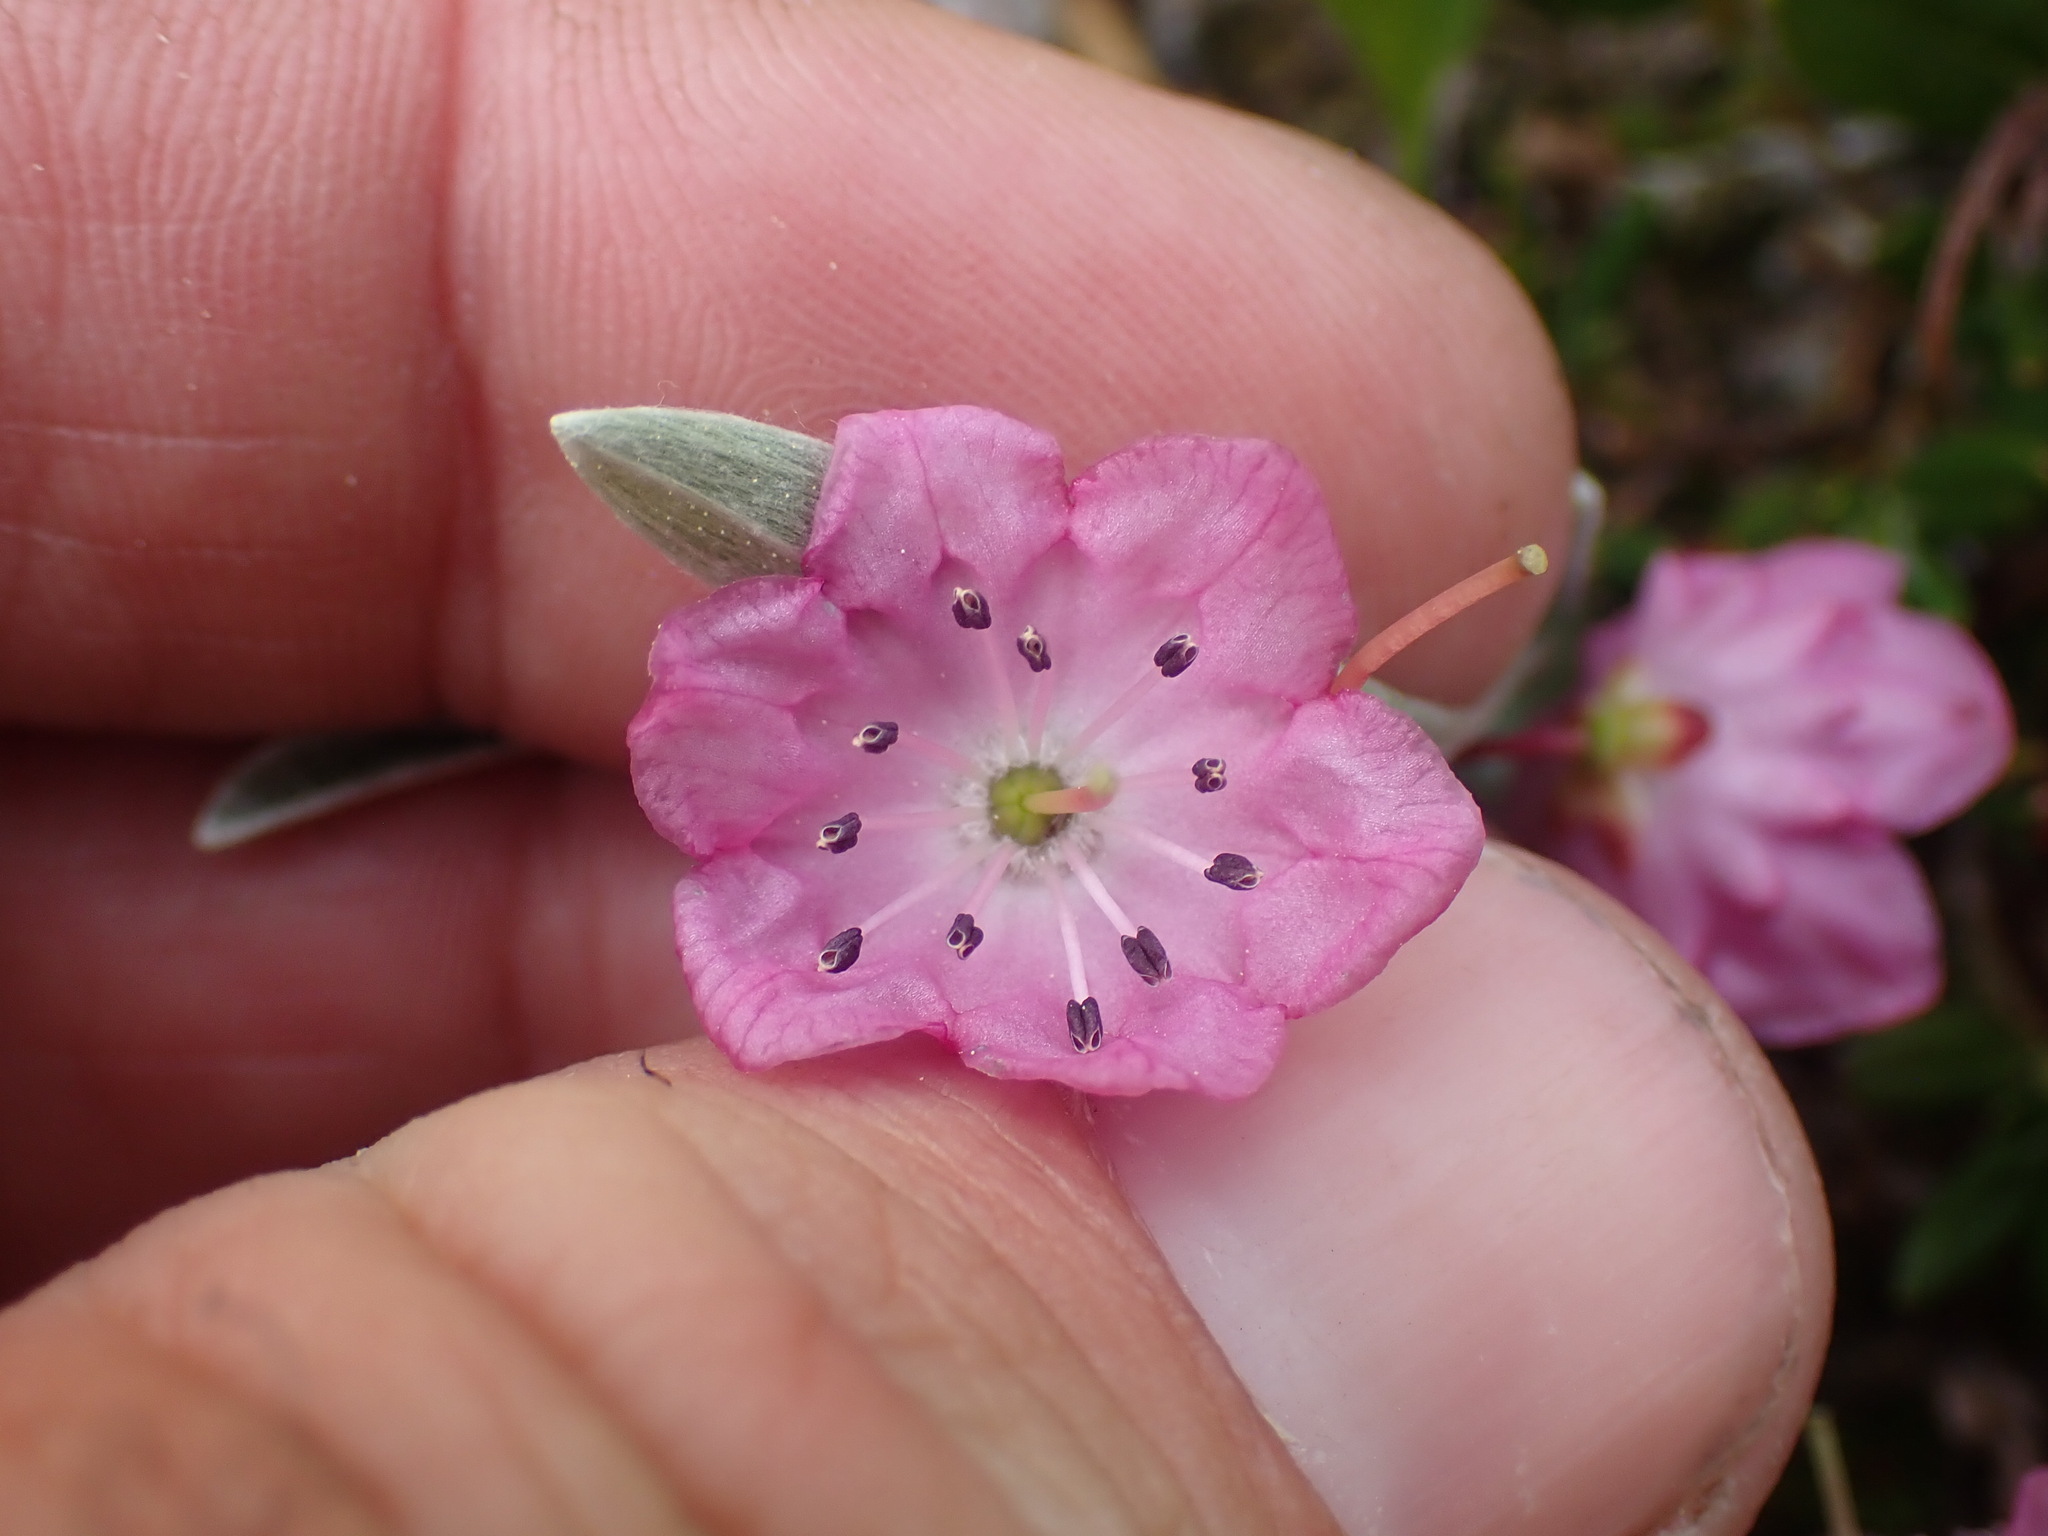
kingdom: Plantae
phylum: Tracheophyta
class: Magnoliopsida
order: Ericales
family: Ericaceae
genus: Kalmia
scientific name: Kalmia microphylla
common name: Alpine bog laurel
